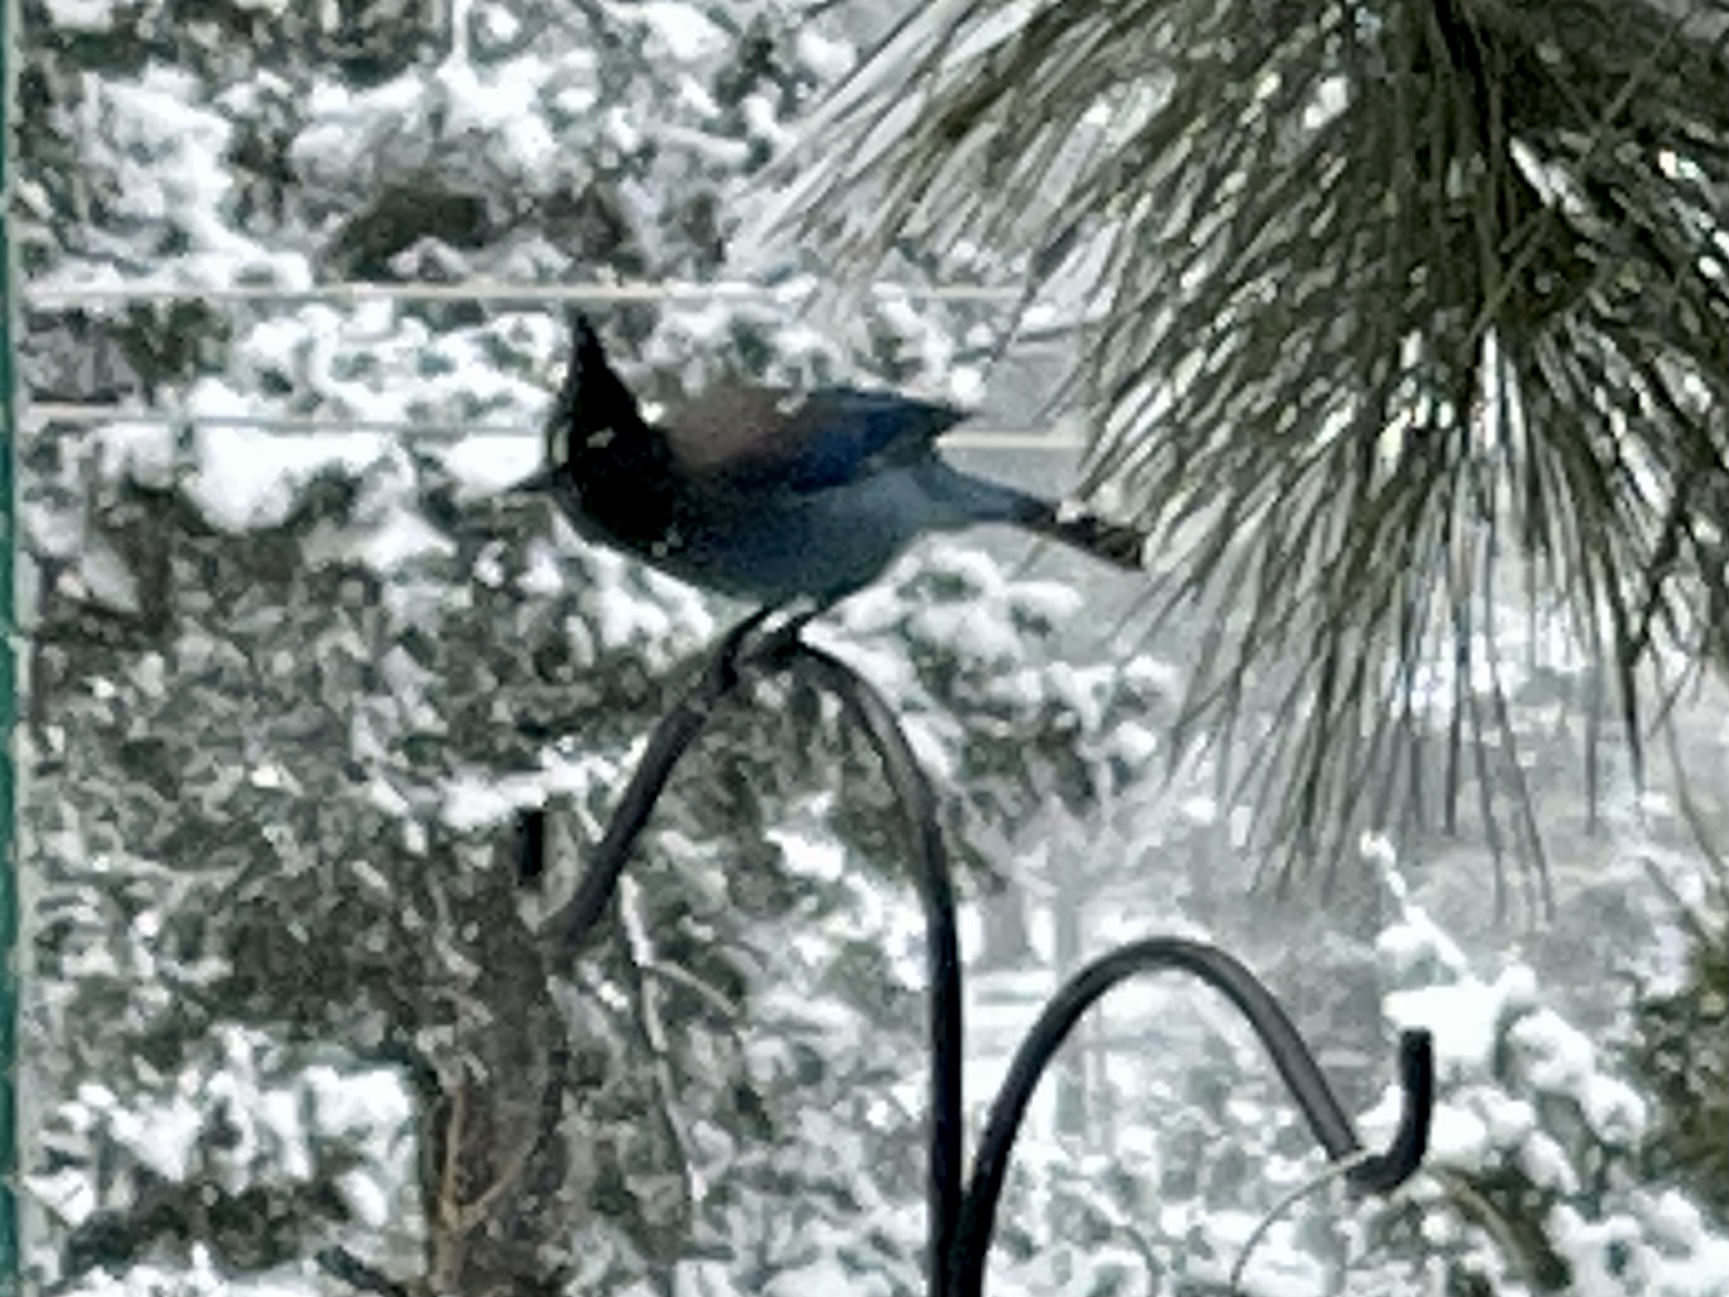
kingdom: Animalia
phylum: Chordata
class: Aves
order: Passeriformes
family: Corvidae
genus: Cyanocitta
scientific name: Cyanocitta stelleri
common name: Steller's jay
